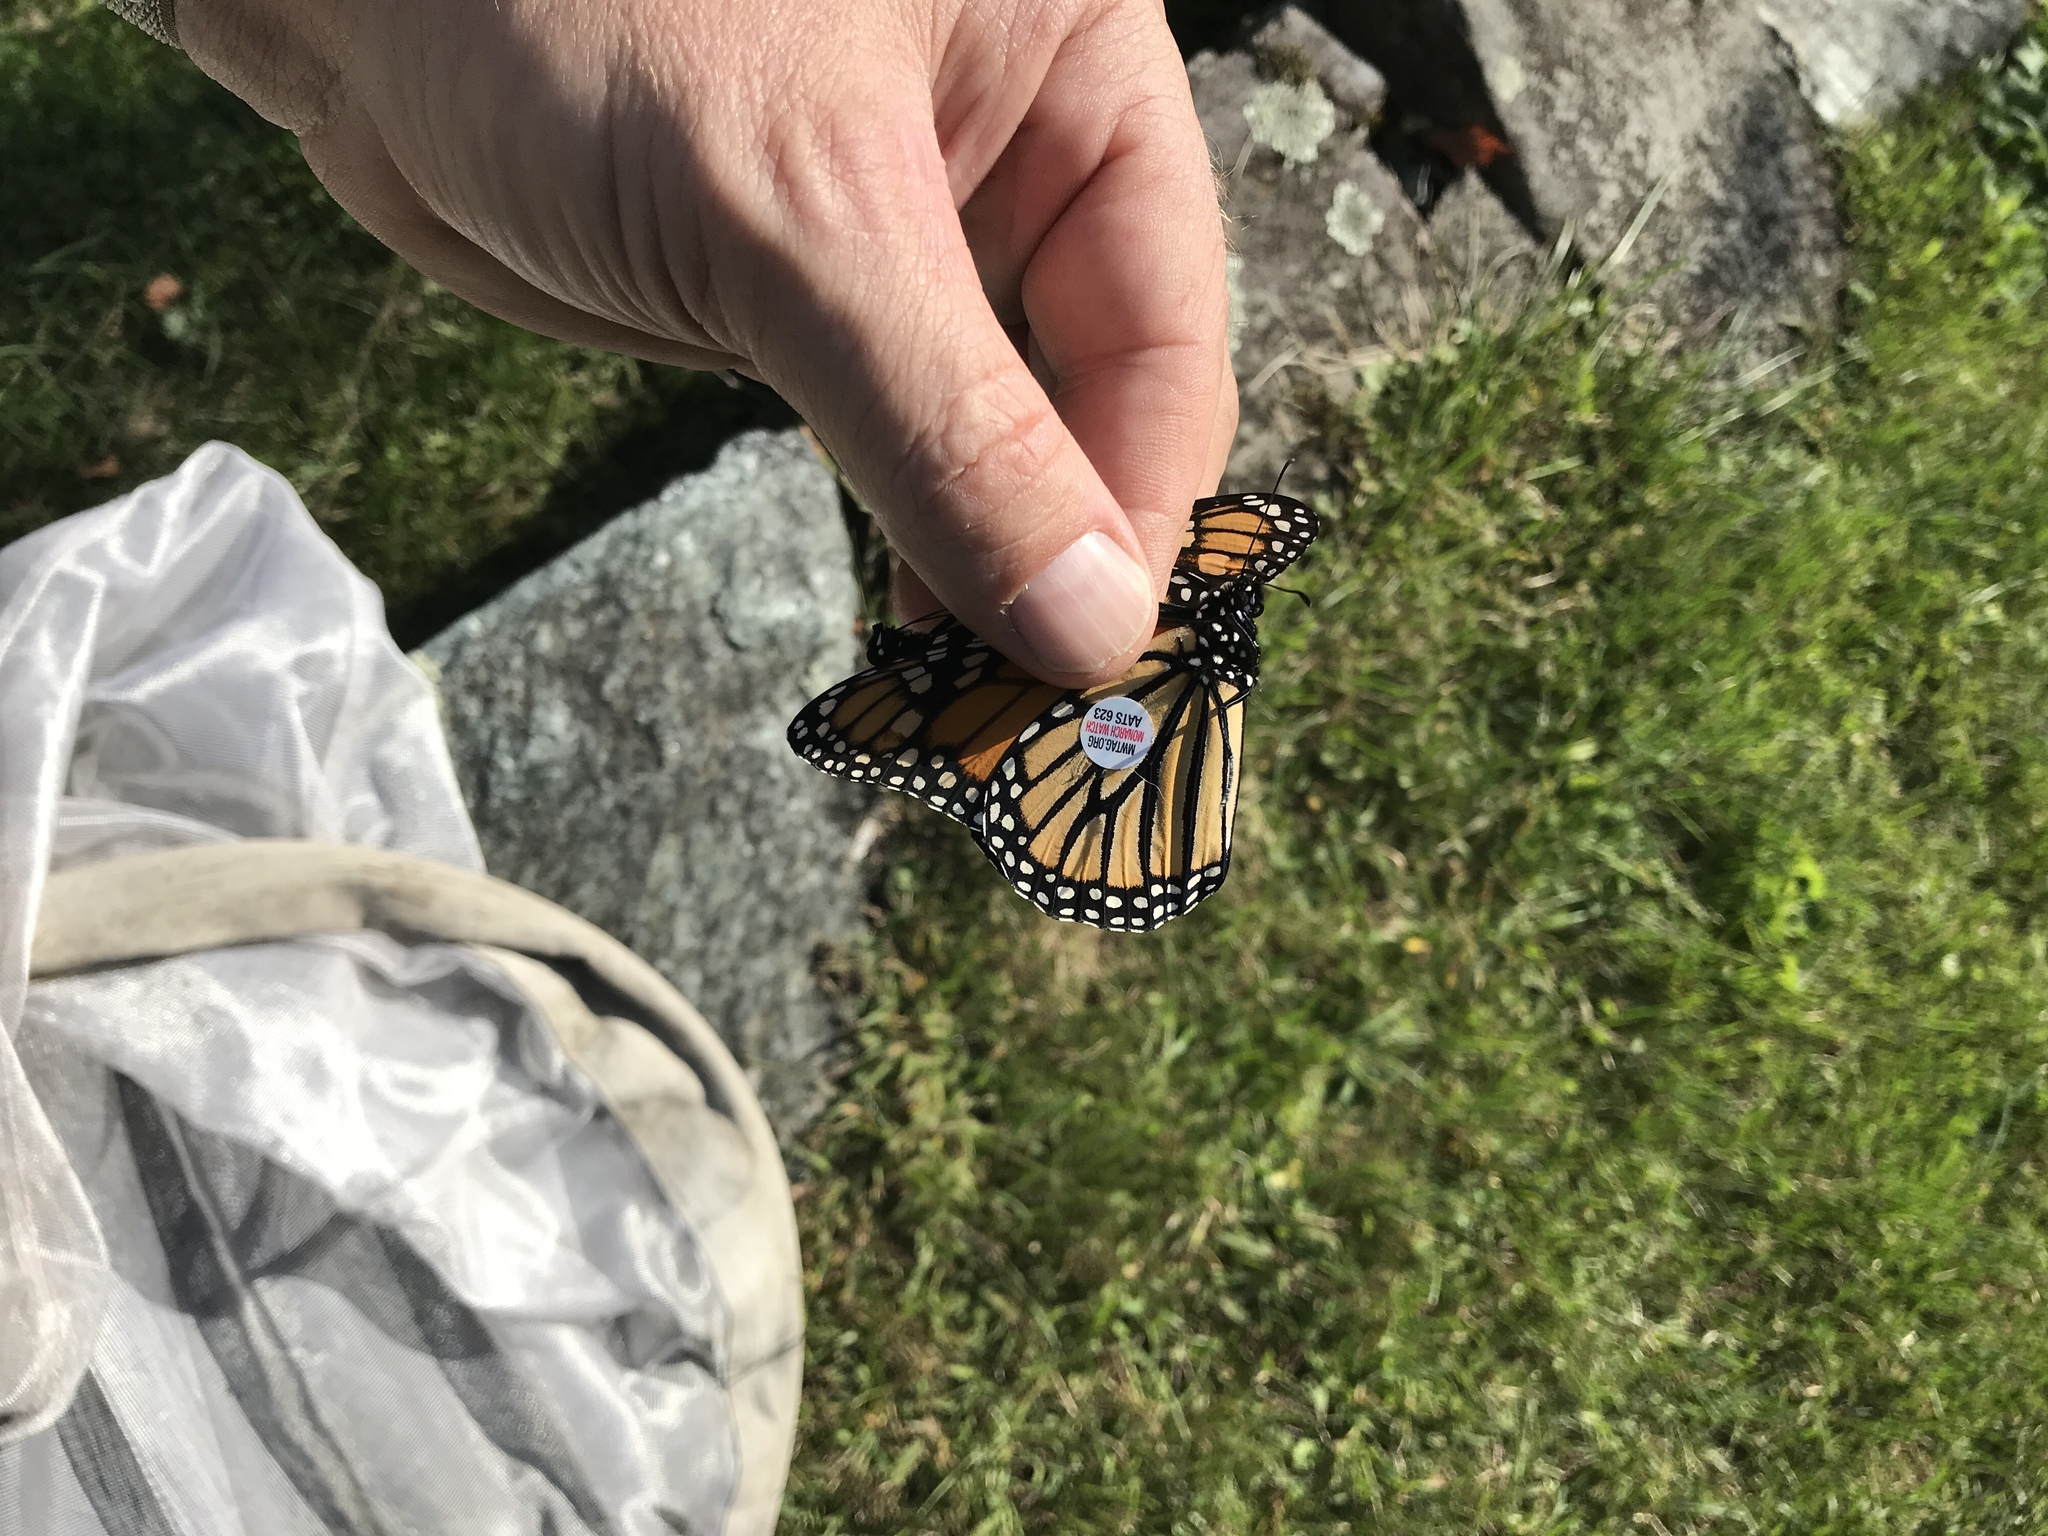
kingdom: Animalia
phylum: Arthropoda
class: Insecta
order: Lepidoptera
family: Nymphalidae
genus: Danaus
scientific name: Danaus plexippus
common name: Monarch
